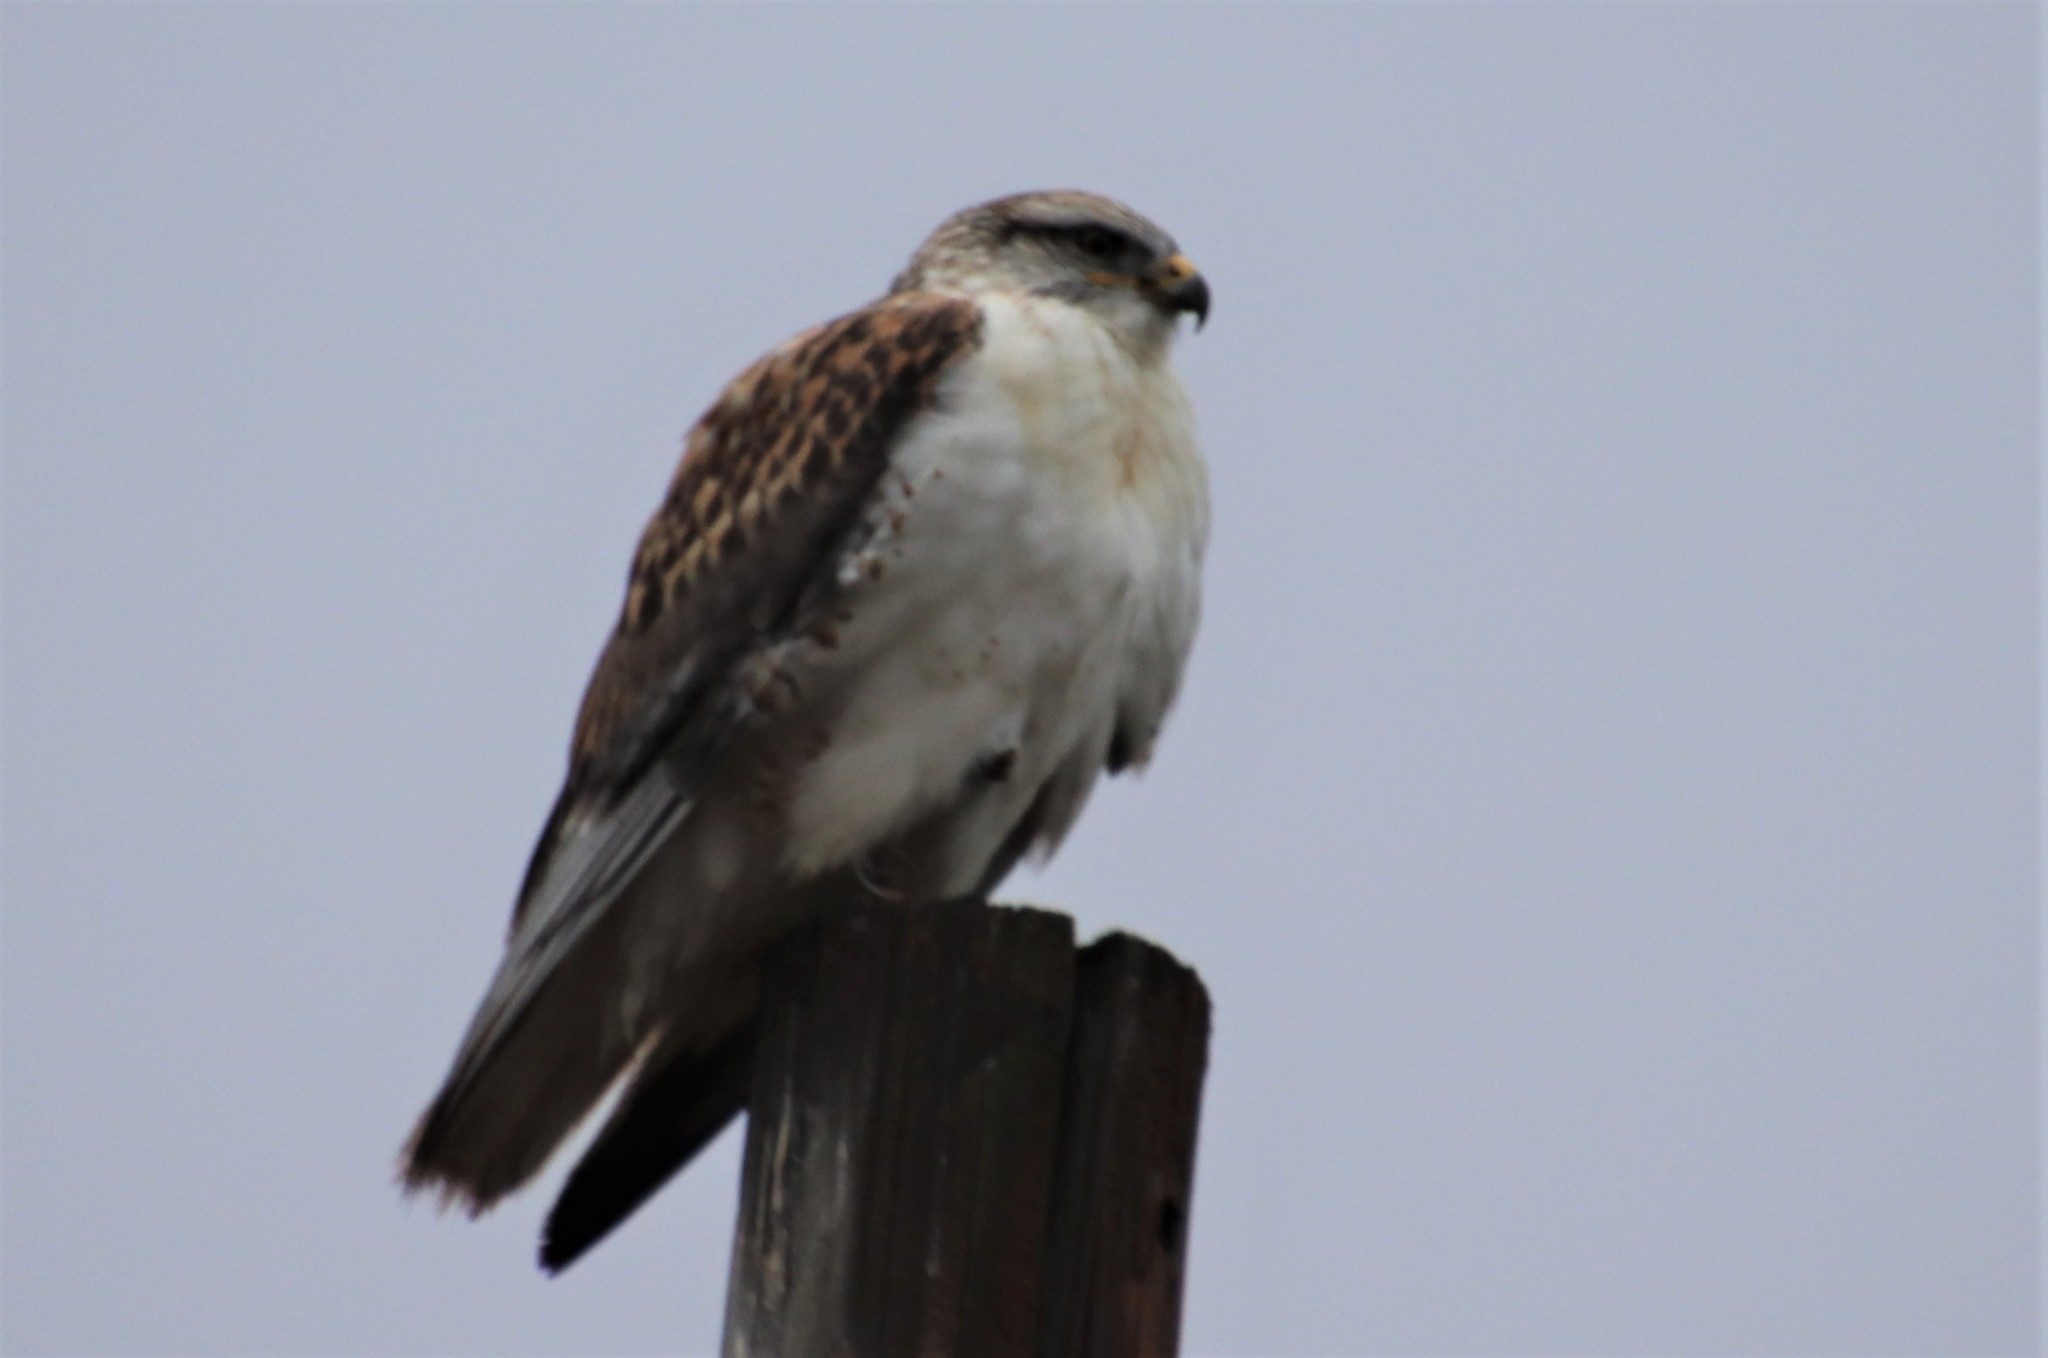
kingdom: Animalia
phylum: Chordata
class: Aves
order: Accipitriformes
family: Accipitridae
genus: Buteo
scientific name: Buteo regalis
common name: Ferruginous hawk
